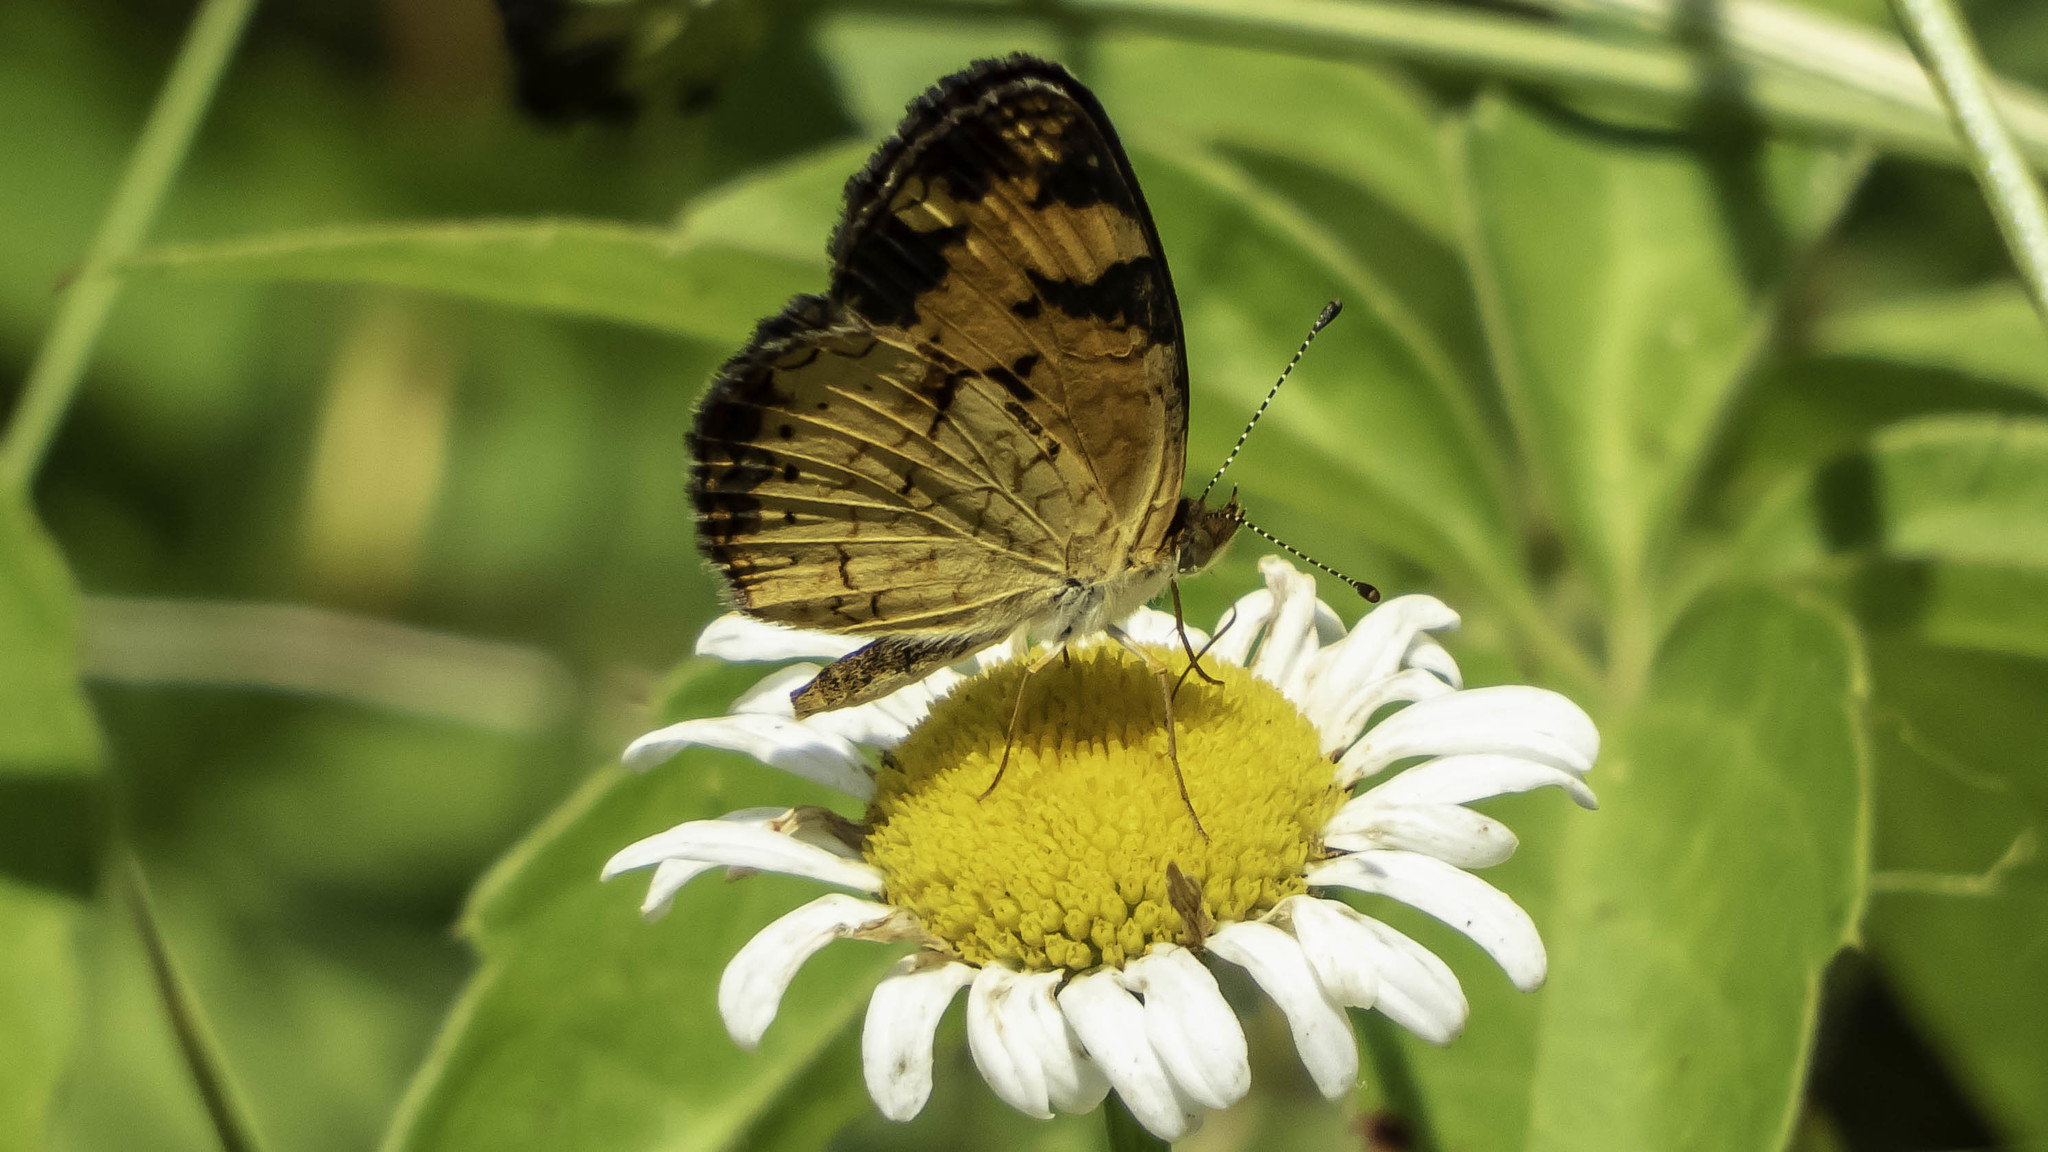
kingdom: Animalia
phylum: Arthropoda
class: Insecta
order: Lepidoptera
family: Nymphalidae
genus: Phyciodes
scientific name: Phyciodes tharos
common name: Pearl crescent
